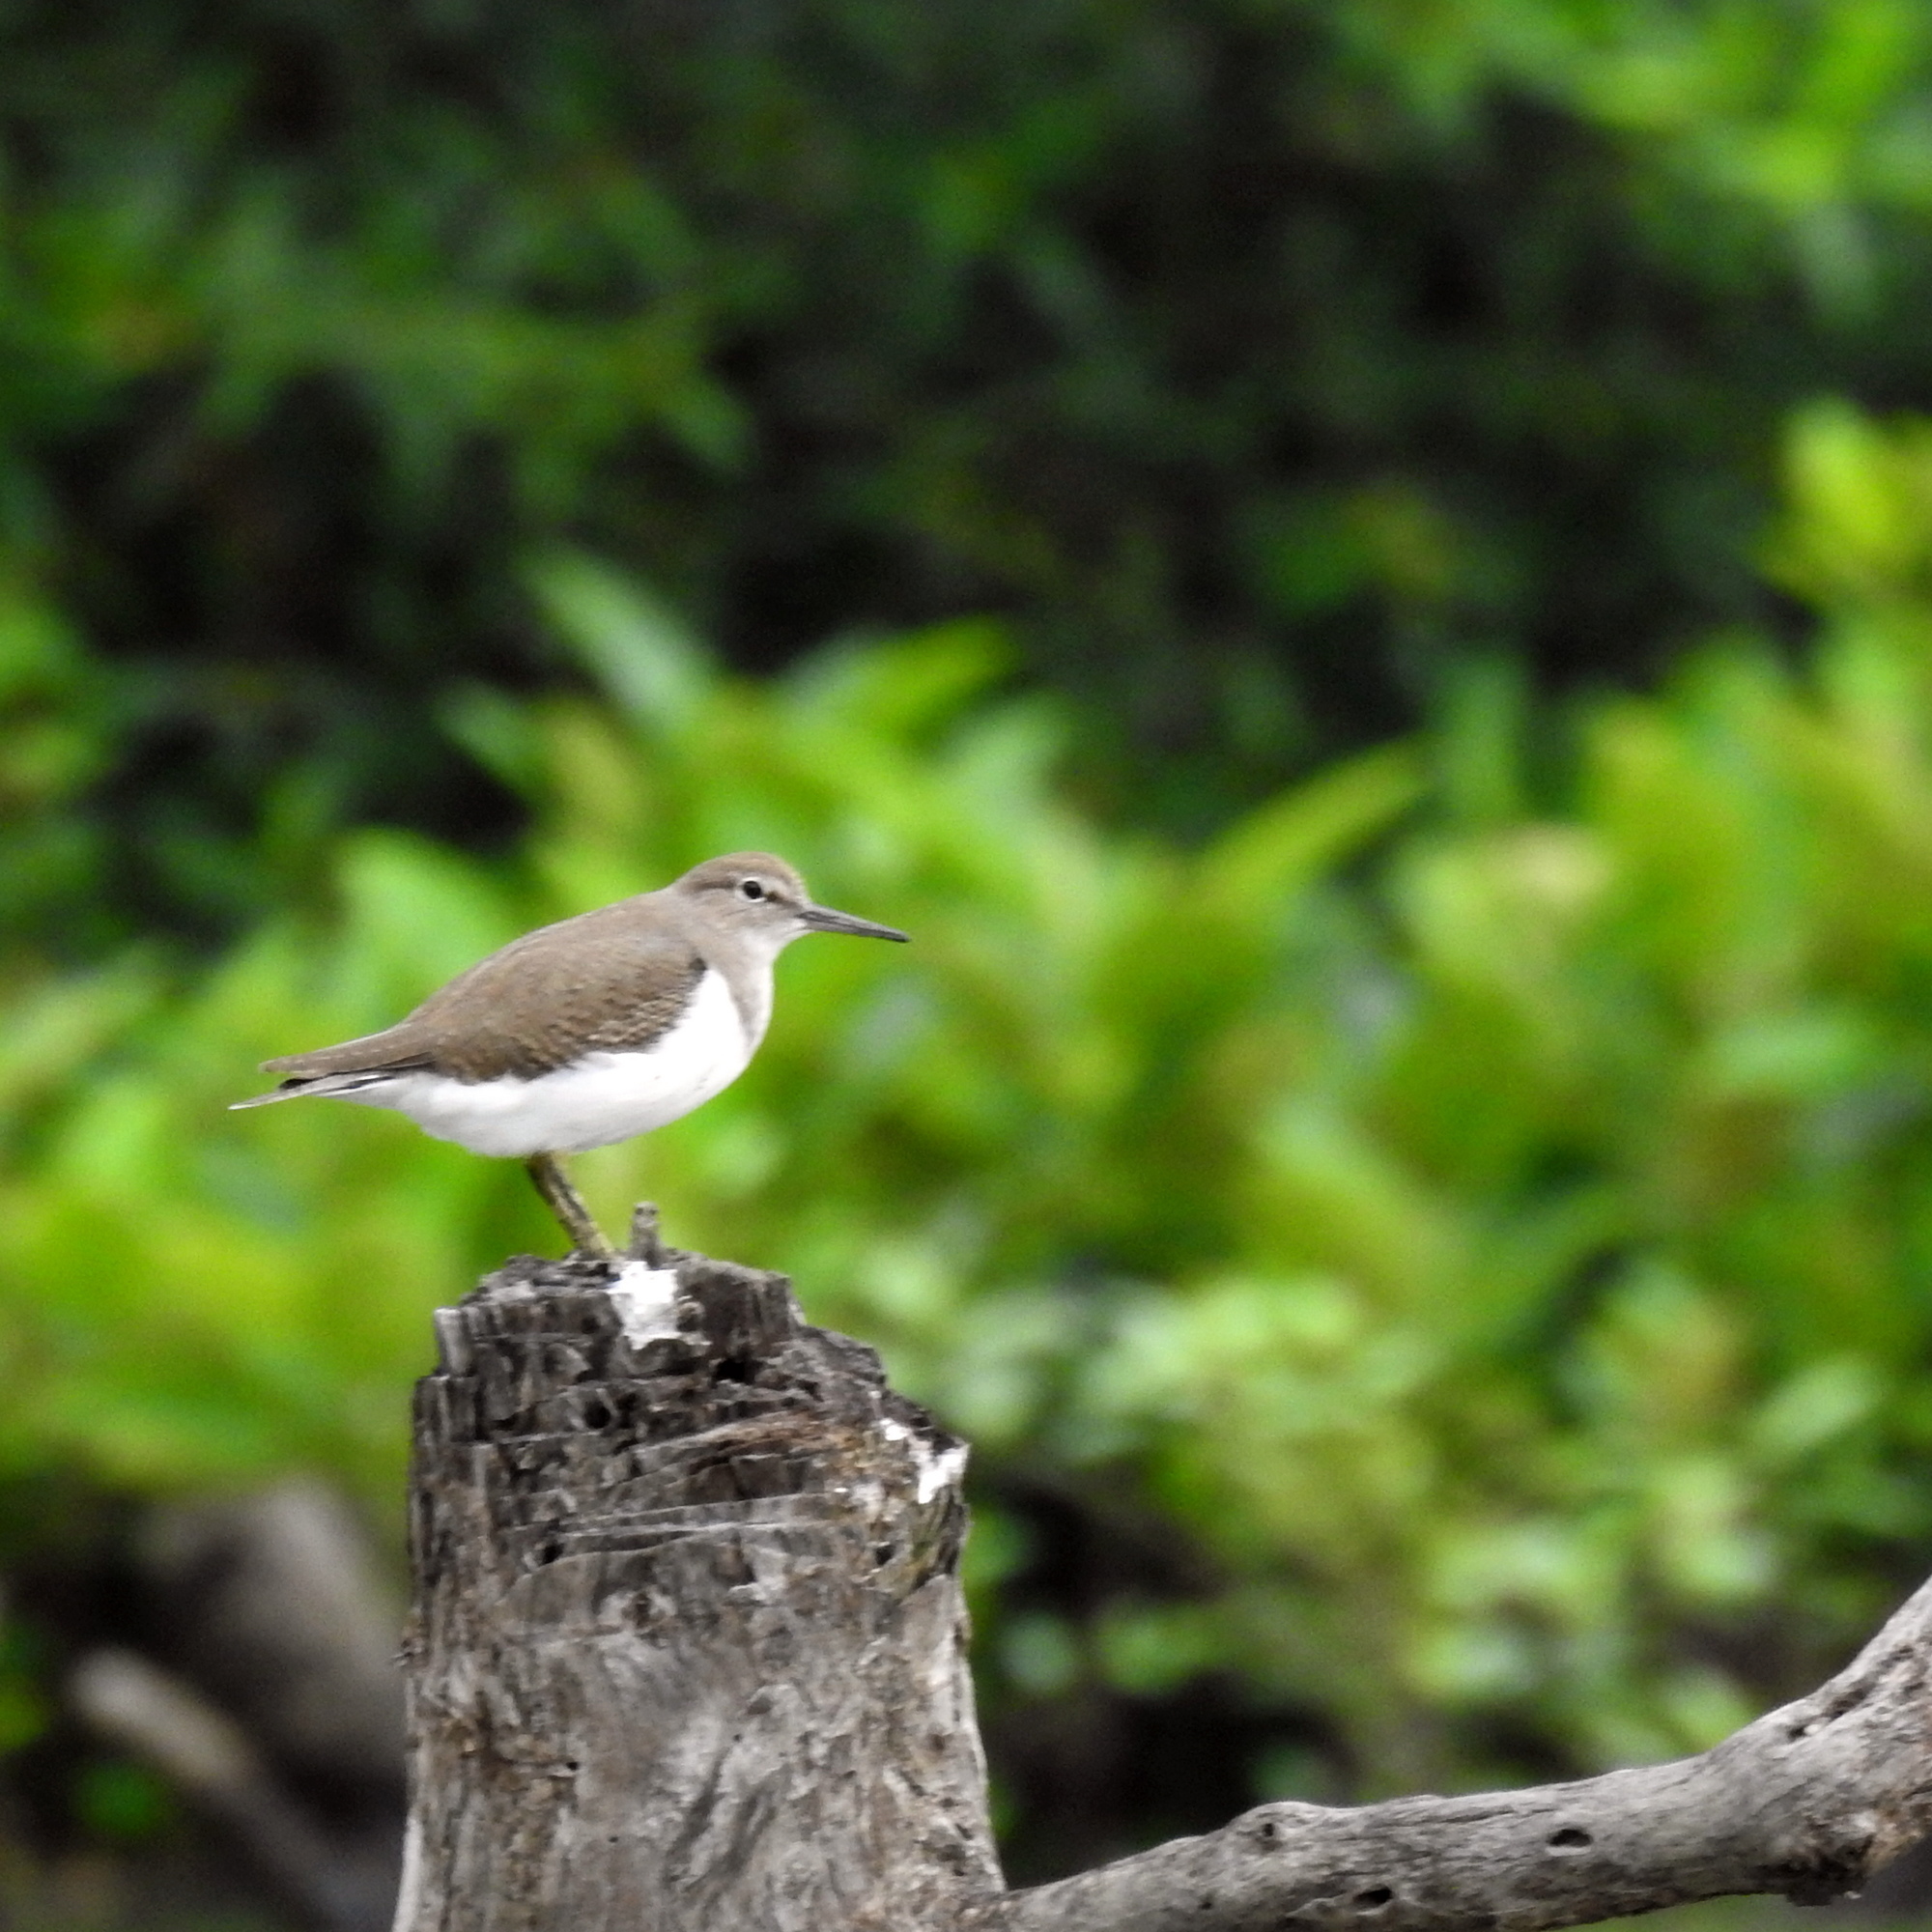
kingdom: Animalia
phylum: Chordata
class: Aves
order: Charadriiformes
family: Scolopacidae
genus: Actitis
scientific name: Actitis hypoleucos
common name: Common sandpiper
